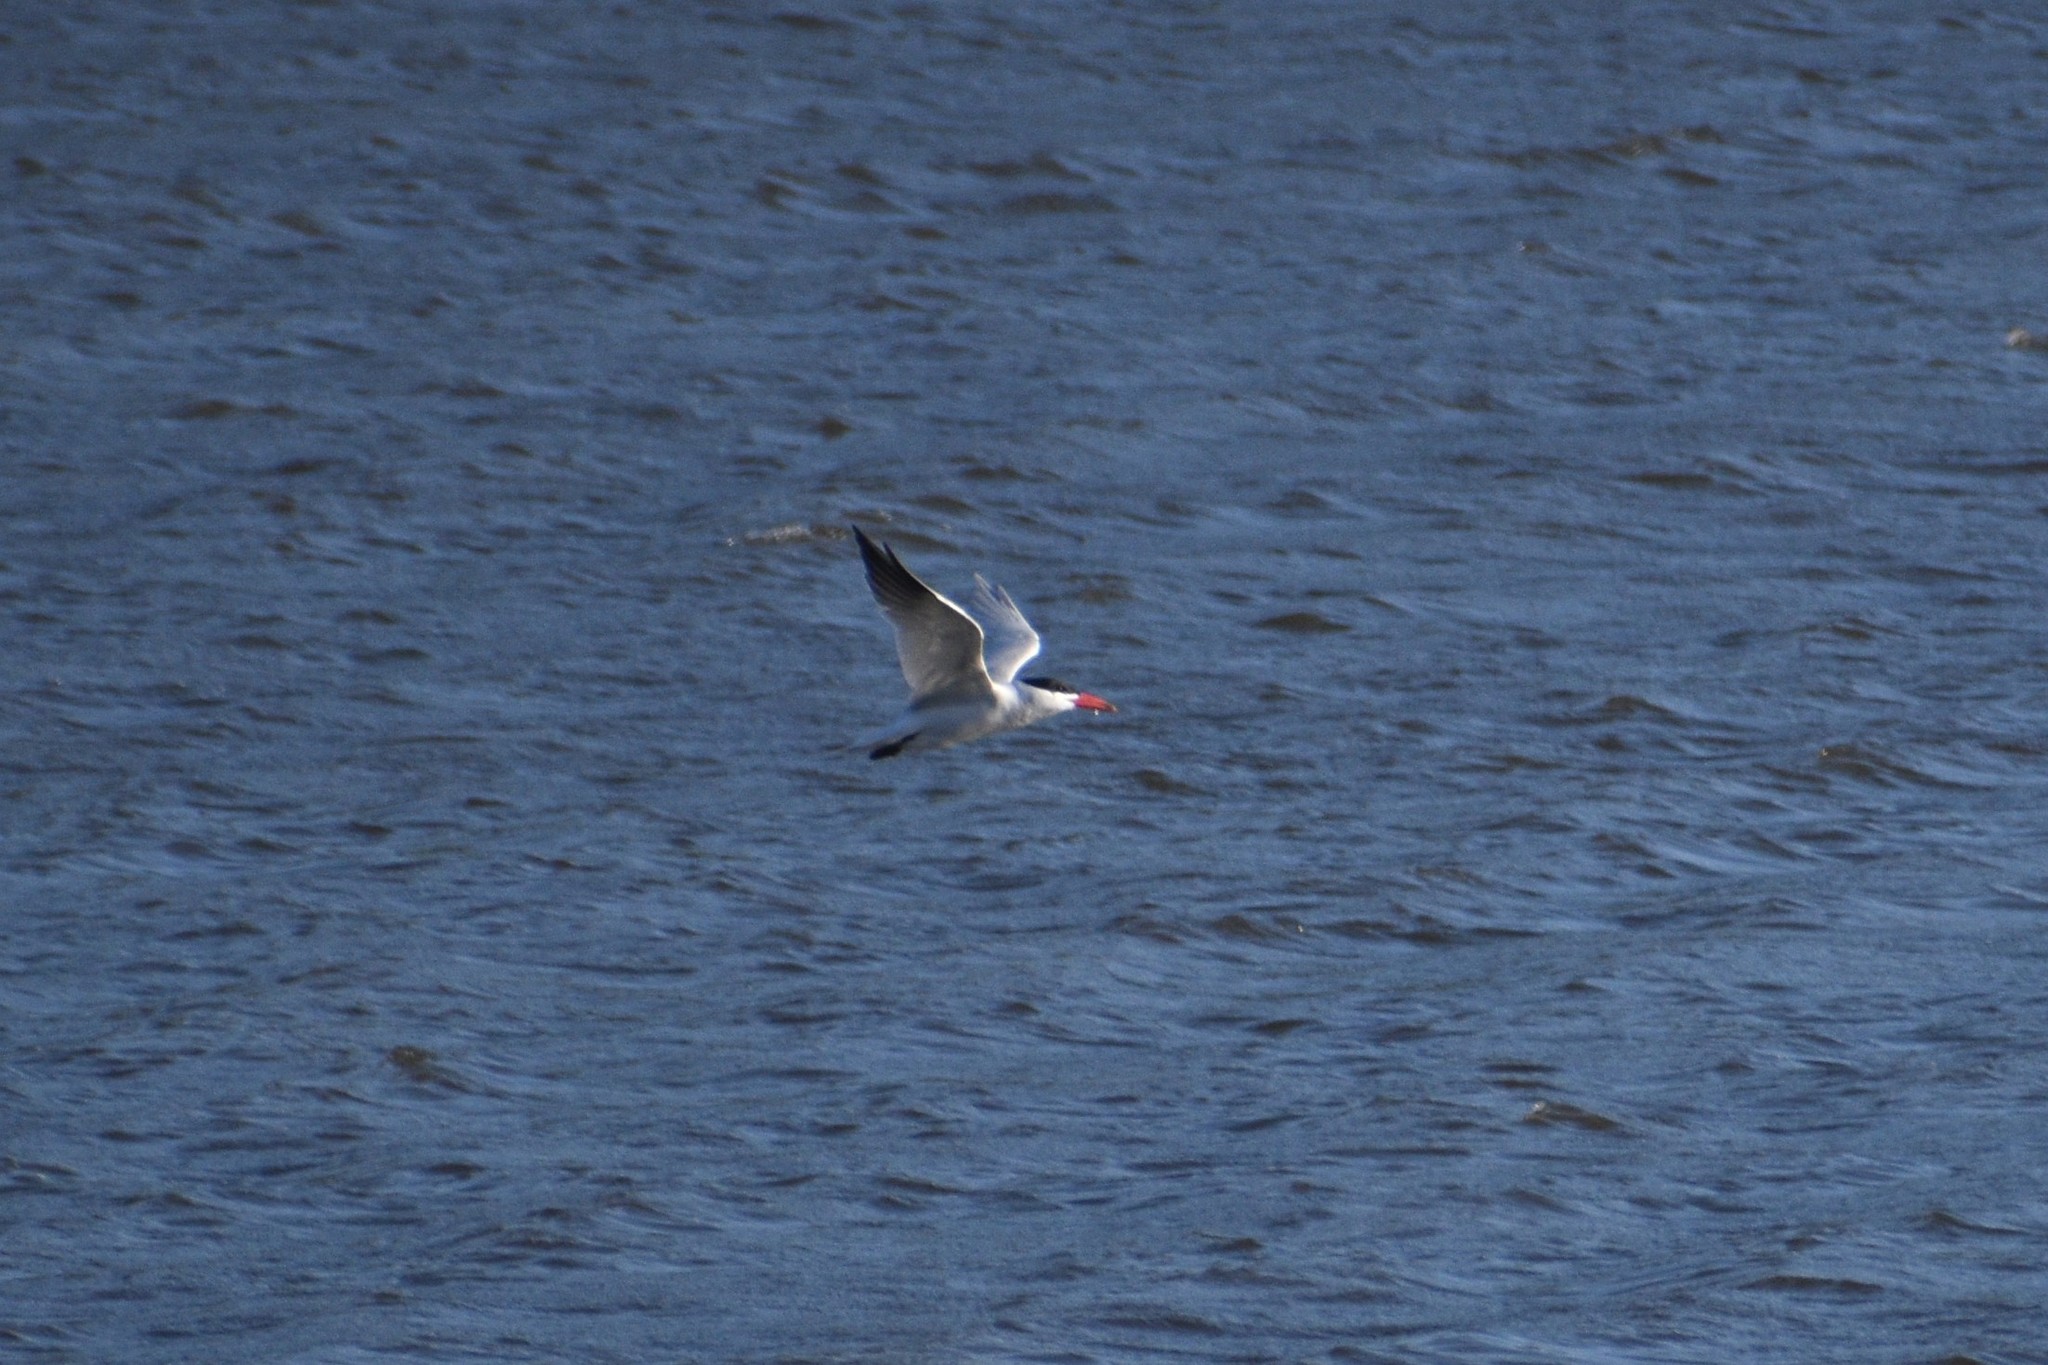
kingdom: Animalia
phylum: Chordata
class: Aves
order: Charadriiformes
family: Laridae
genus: Hydroprogne
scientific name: Hydroprogne caspia
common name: Caspian tern
